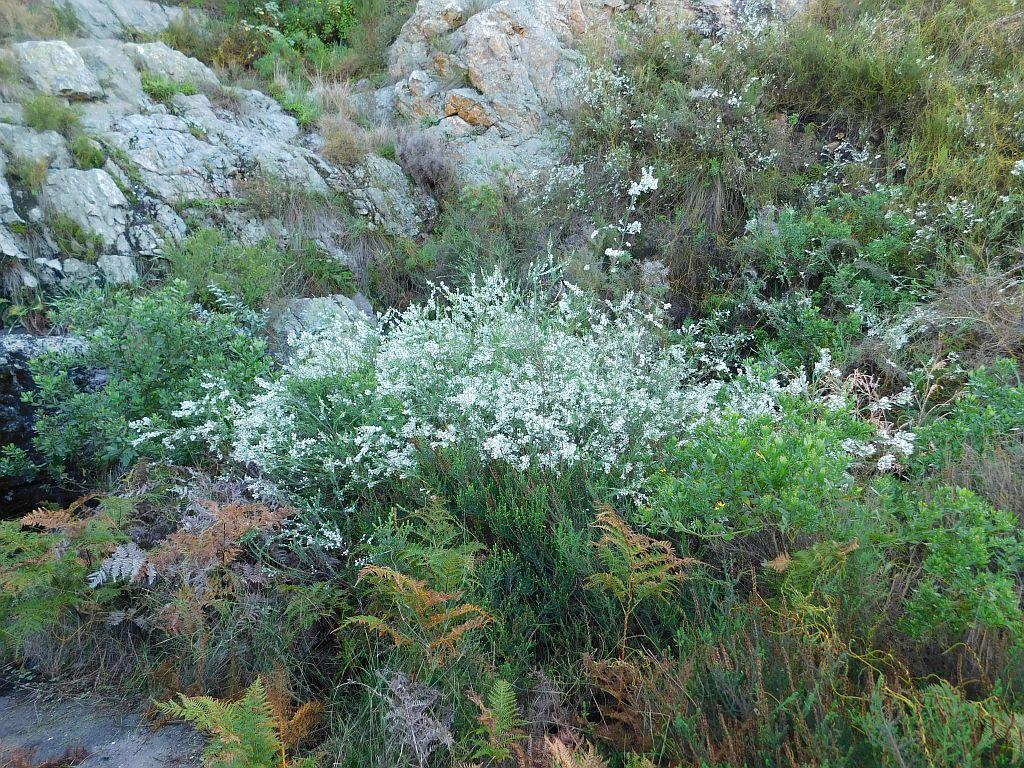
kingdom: Plantae
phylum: Tracheophyta
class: Magnoliopsida
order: Malvales
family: Thymelaeaceae
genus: Struthiola
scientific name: Struthiola myrsinites
